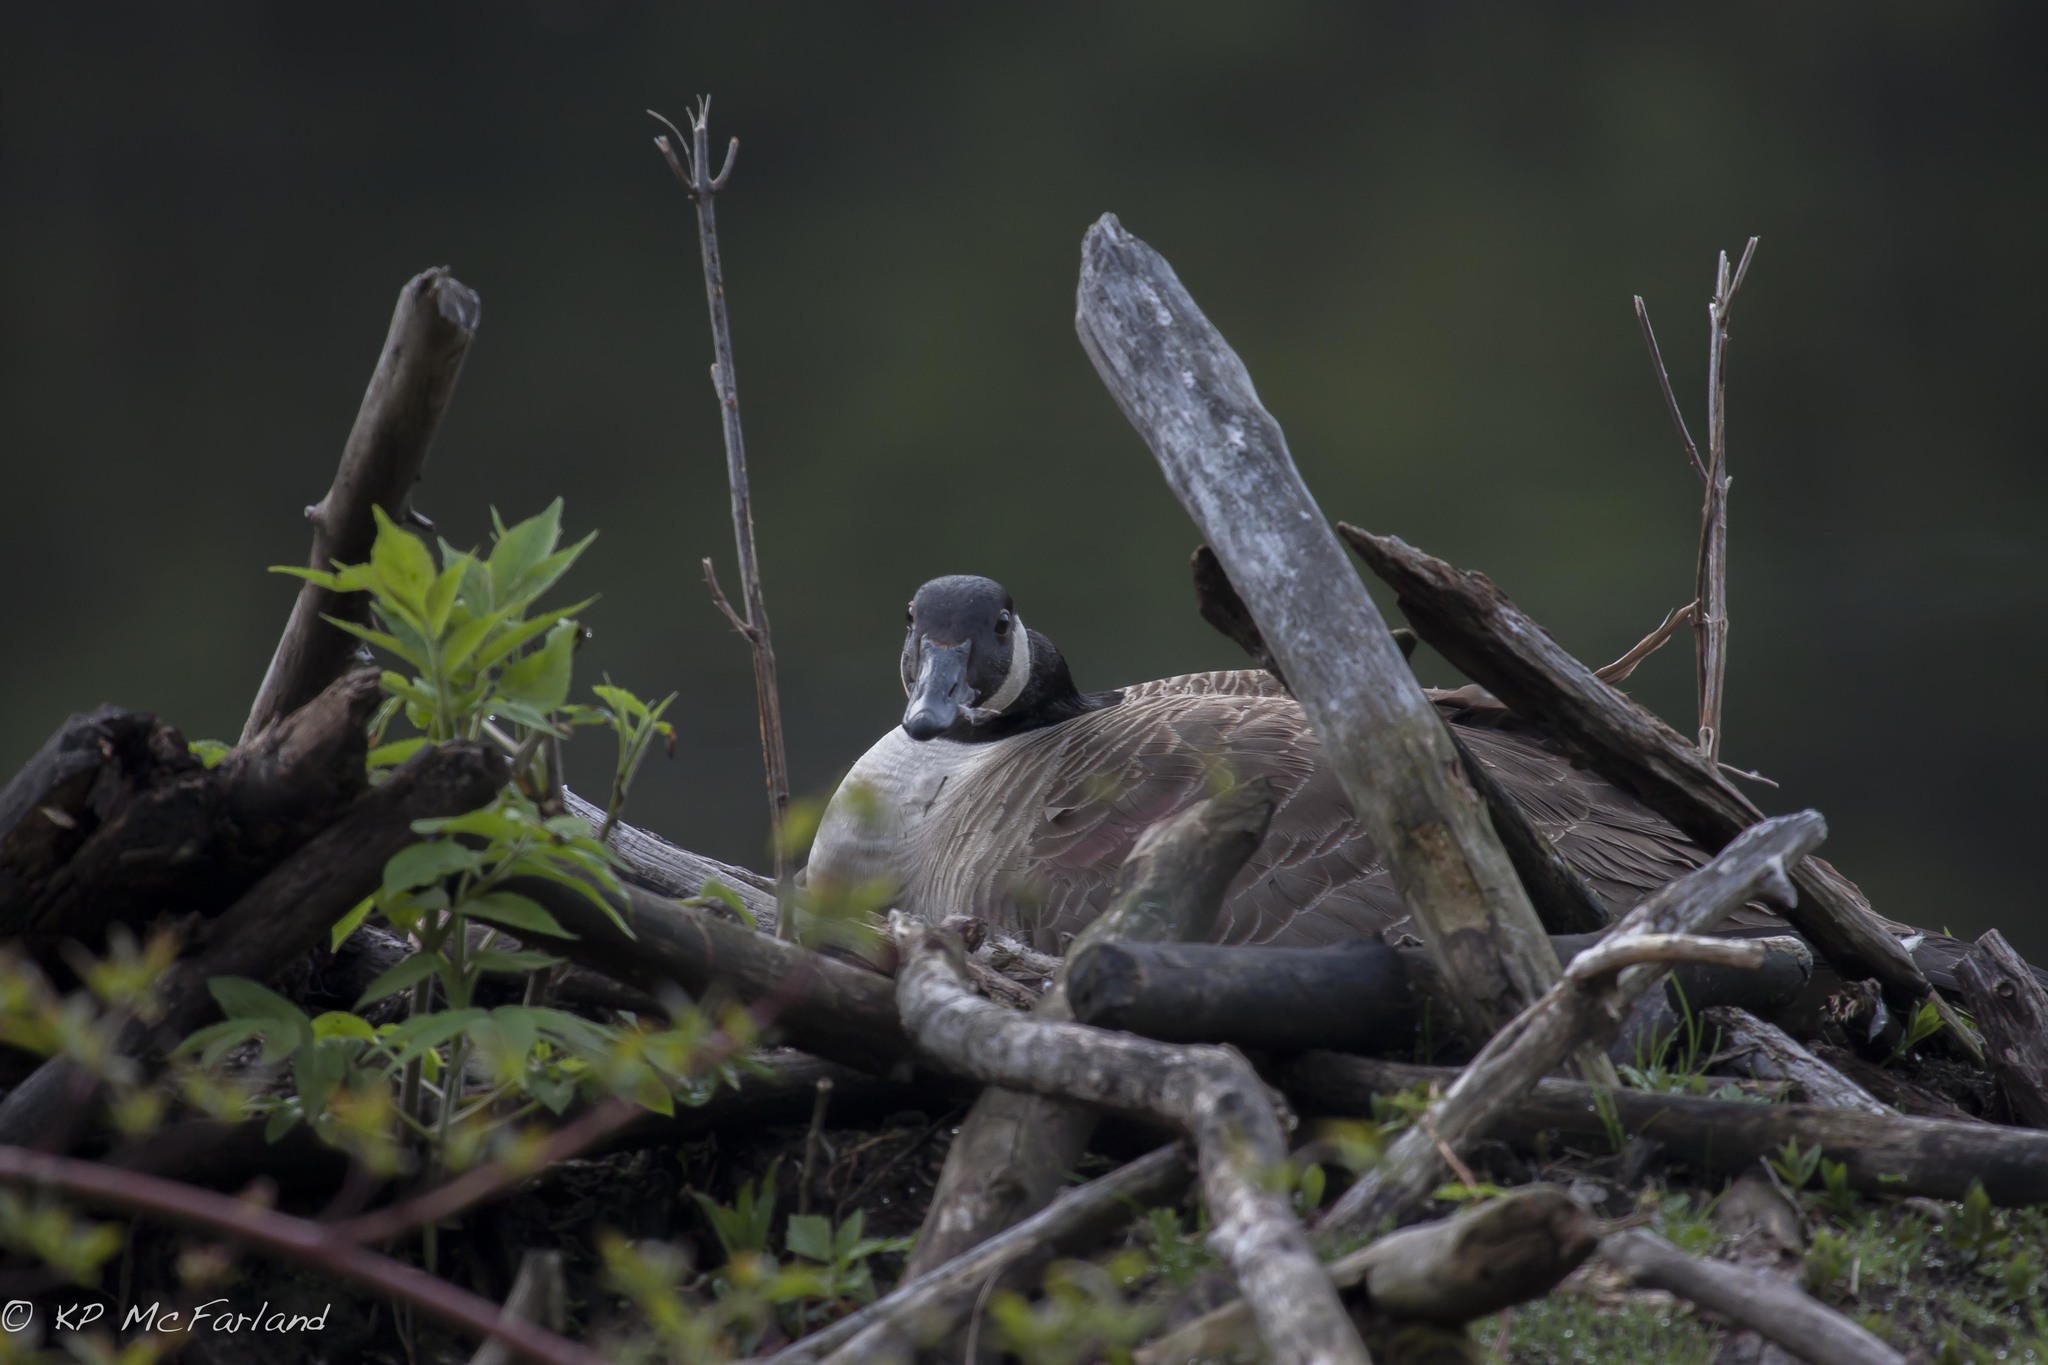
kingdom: Animalia
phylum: Chordata
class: Aves
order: Anseriformes
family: Anatidae
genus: Branta
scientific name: Branta canadensis
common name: Canada goose
